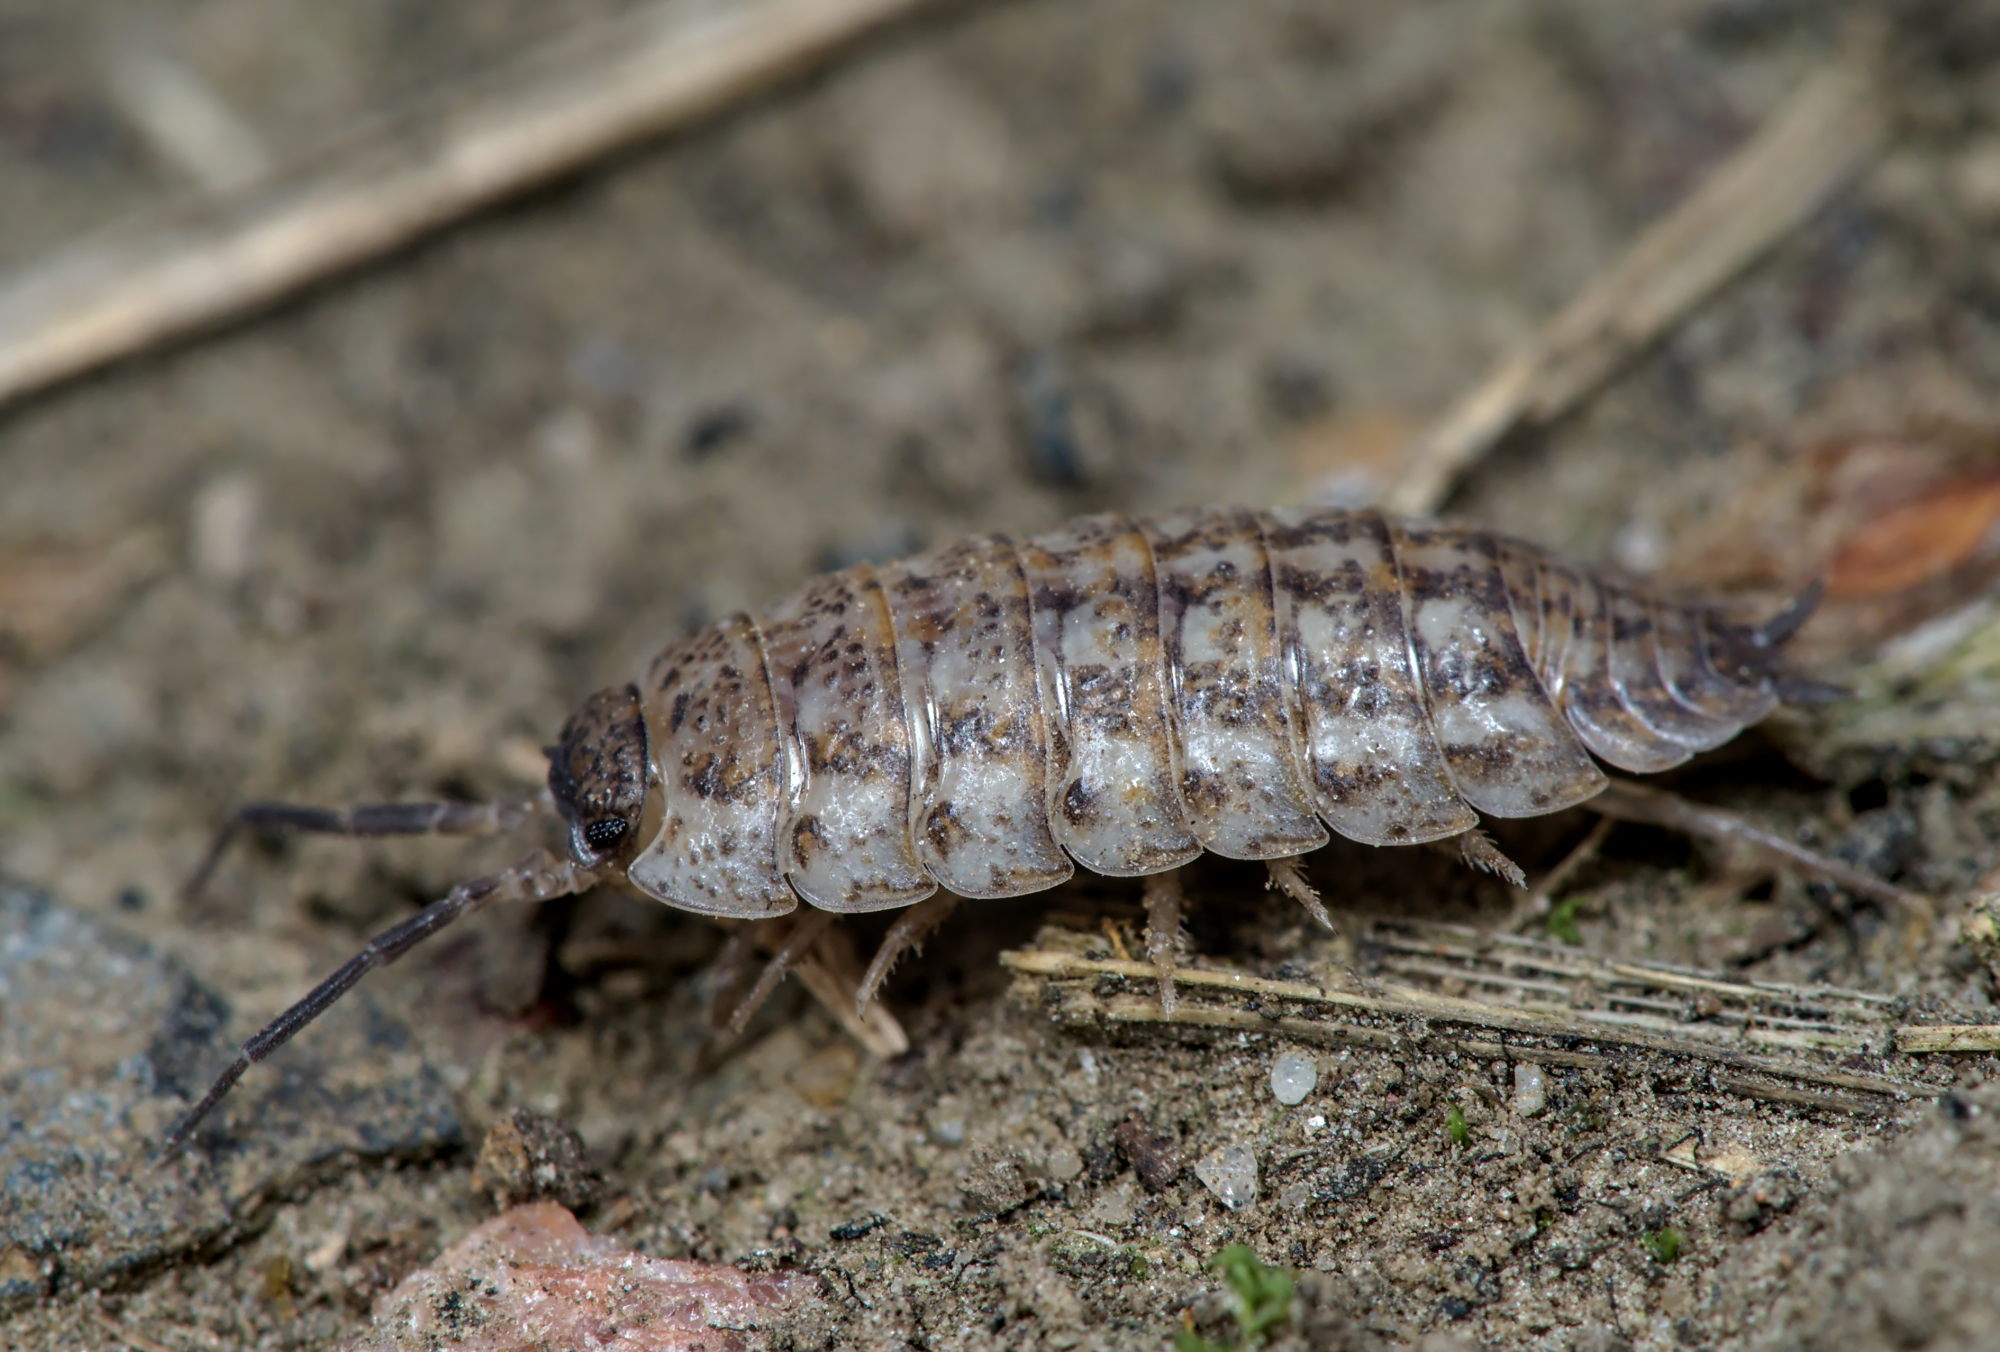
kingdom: Animalia
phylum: Arthropoda
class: Malacostraca
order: Isopoda
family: Trachelipodidae
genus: Trachelipus
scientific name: Trachelipus rathkii
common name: Isopod
